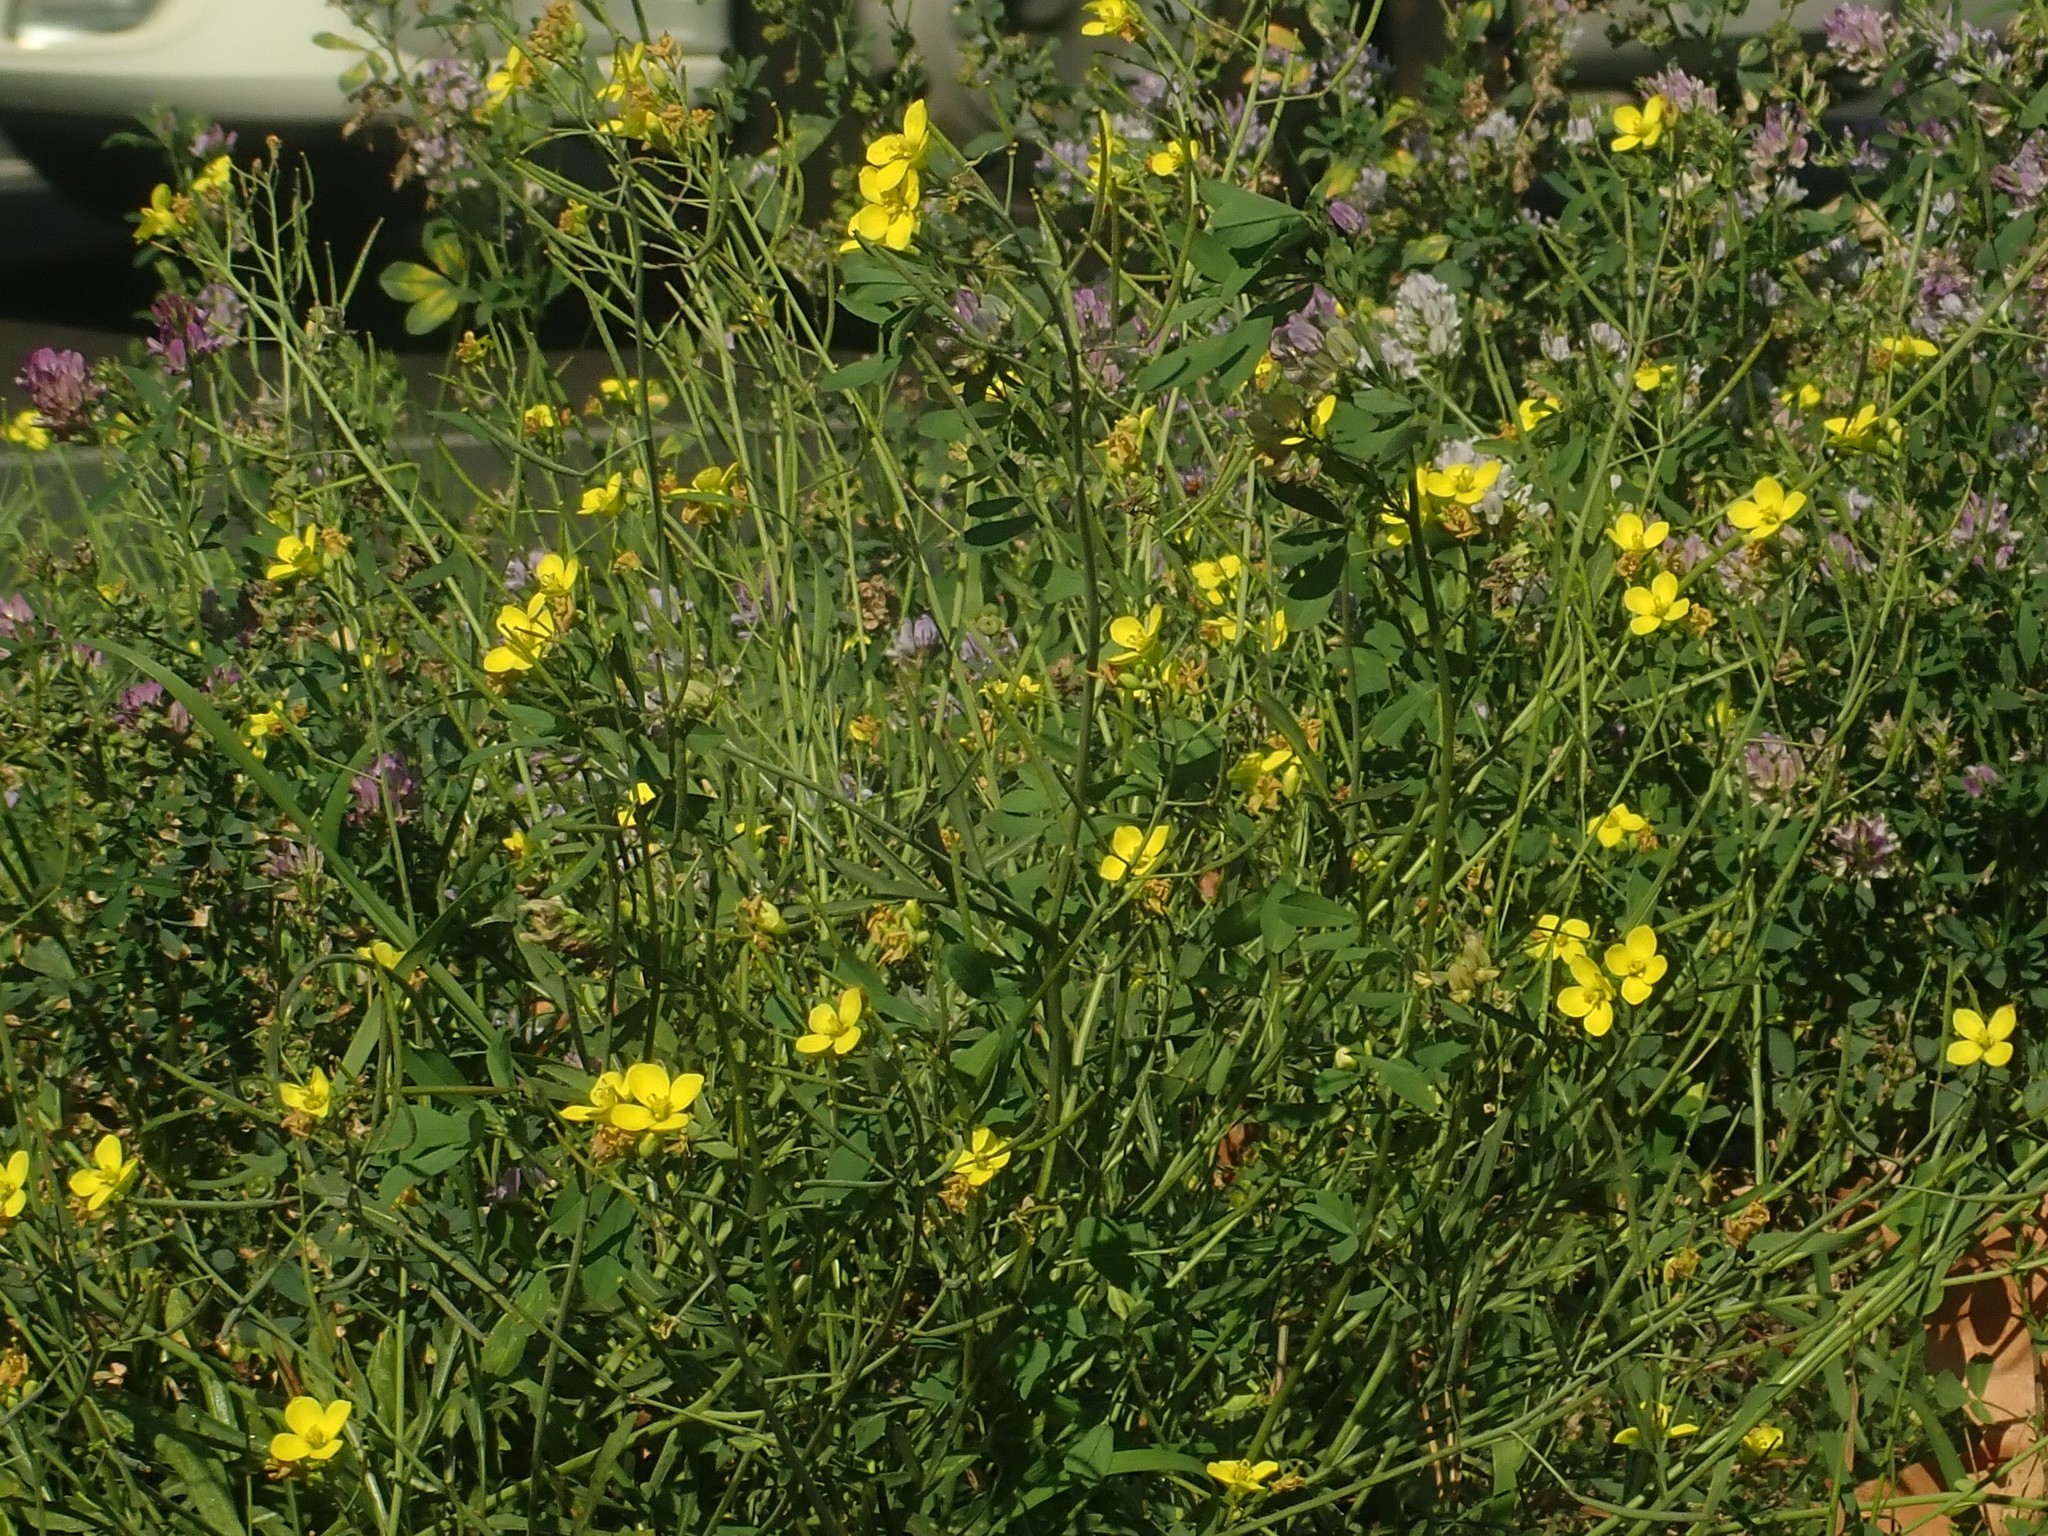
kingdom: Plantae
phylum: Tracheophyta
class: Magnoliopsida
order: Brassicales
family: Brassicaceae
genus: Diplotaxis
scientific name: Diplotaxis tenuifolia
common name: Perennial wall-rocket
